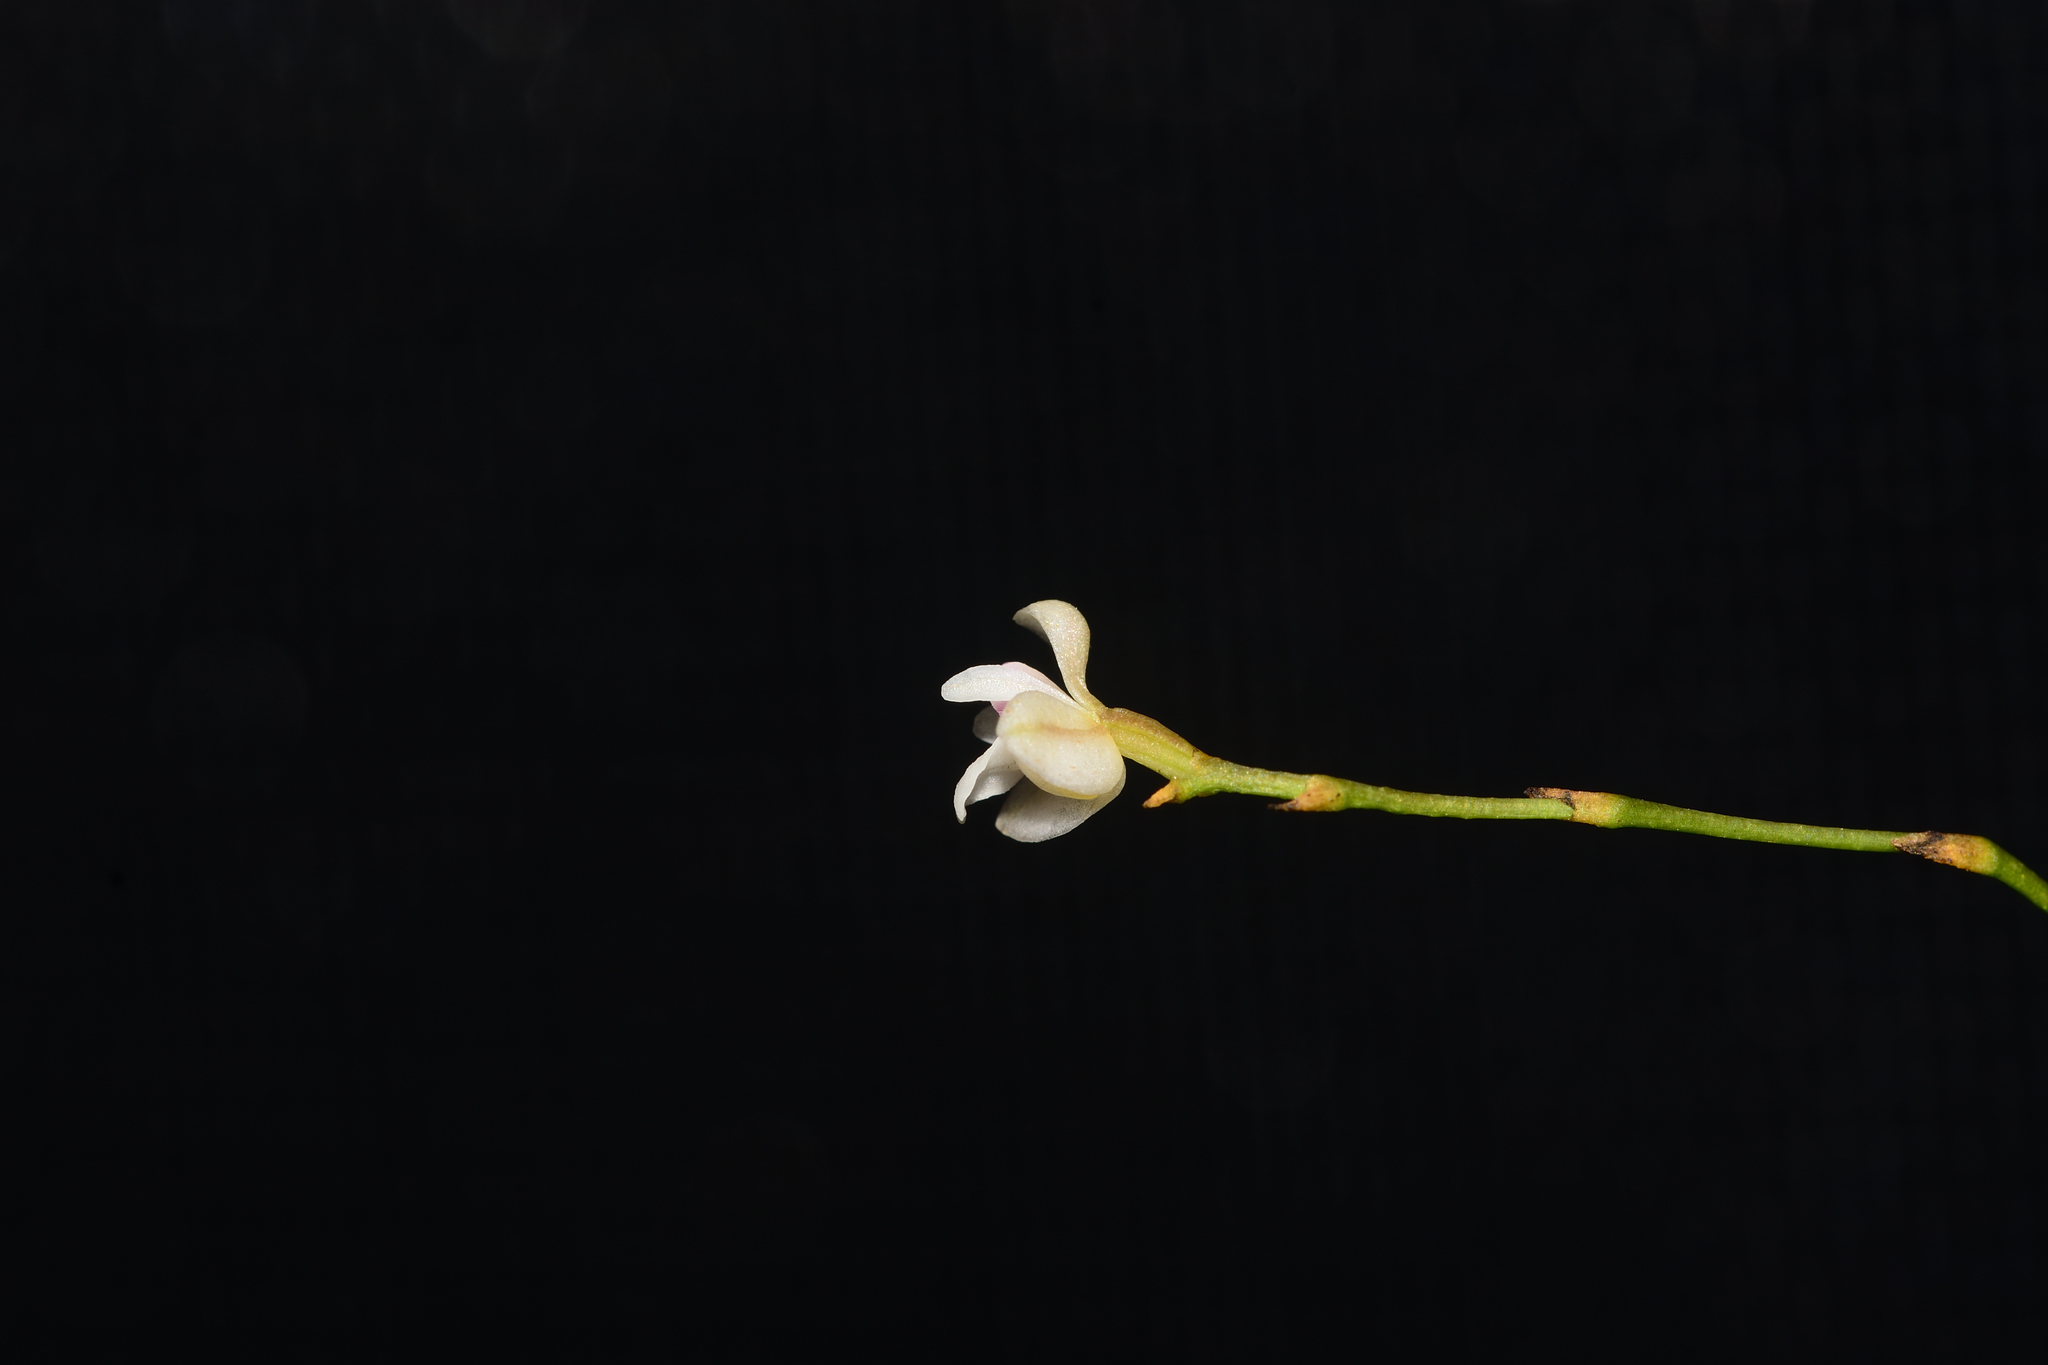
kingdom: Plantae
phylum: Tracheophyta
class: Liliopsida
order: Asparagales
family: Orchidaceae
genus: Sirhookera
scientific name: Sirhookera lanceolata
